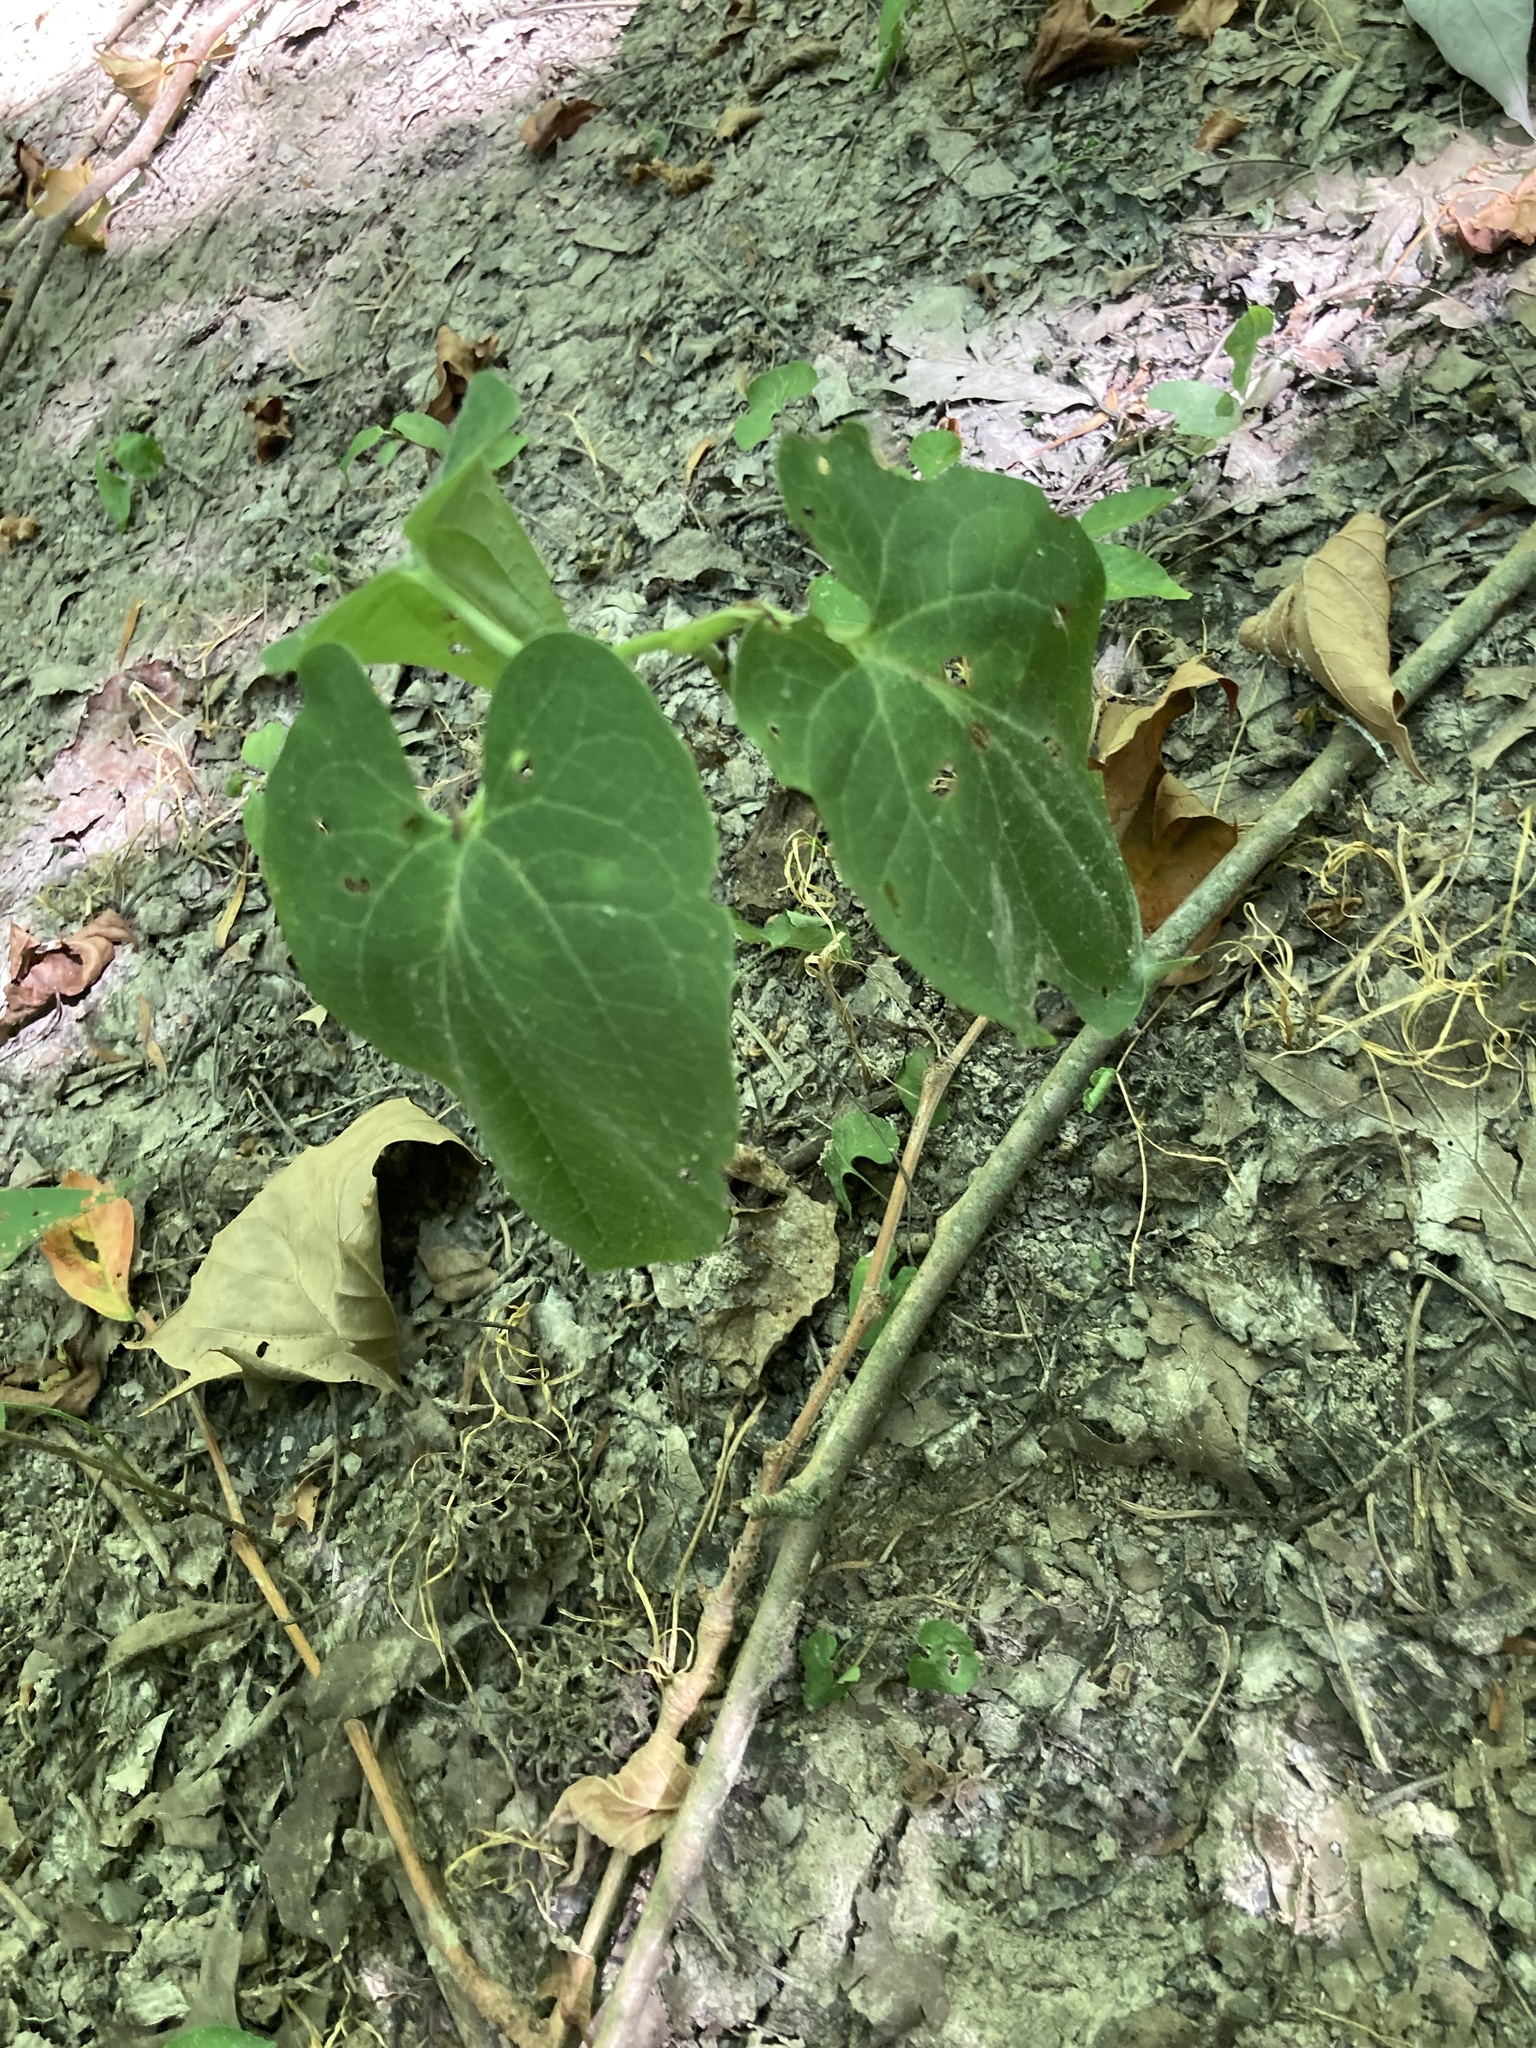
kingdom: Plantae
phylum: Tracheophyta
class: Magnoliopsida
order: Piperales
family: Saururaceae
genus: Saururus
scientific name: Saururus cernuus
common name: Lizard's-tail
